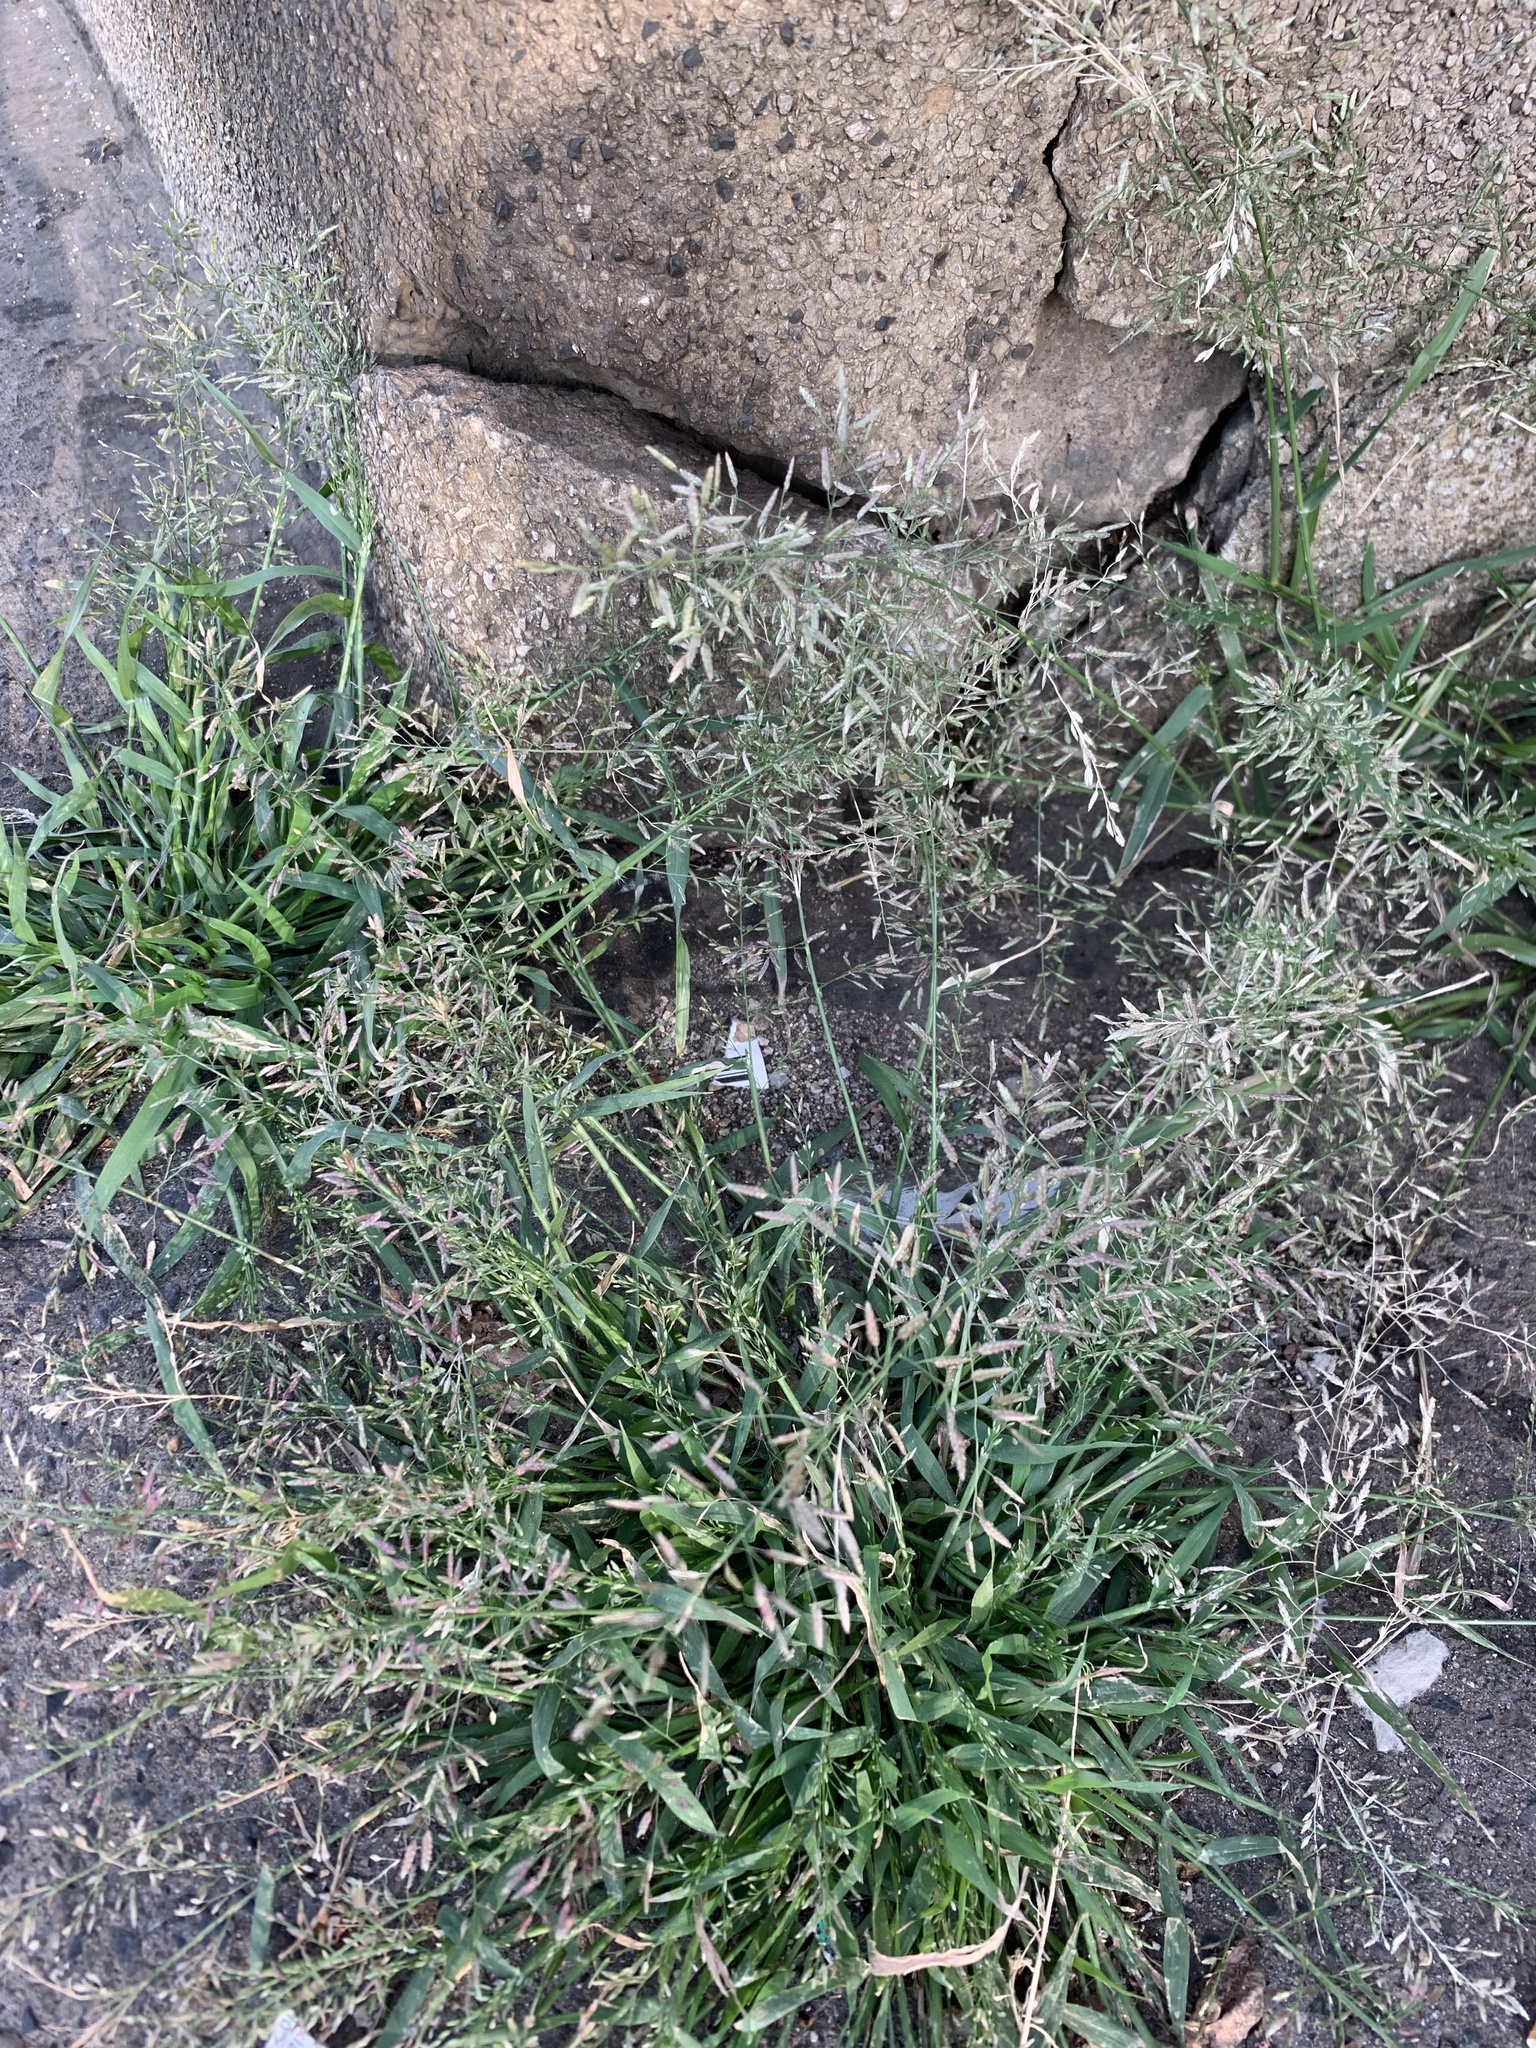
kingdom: Plantae
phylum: Tracheophyta
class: Liliopsida
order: Poales
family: Poaceae
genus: Eragrostis
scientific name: Eragrostis minor
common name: Small love-grass
